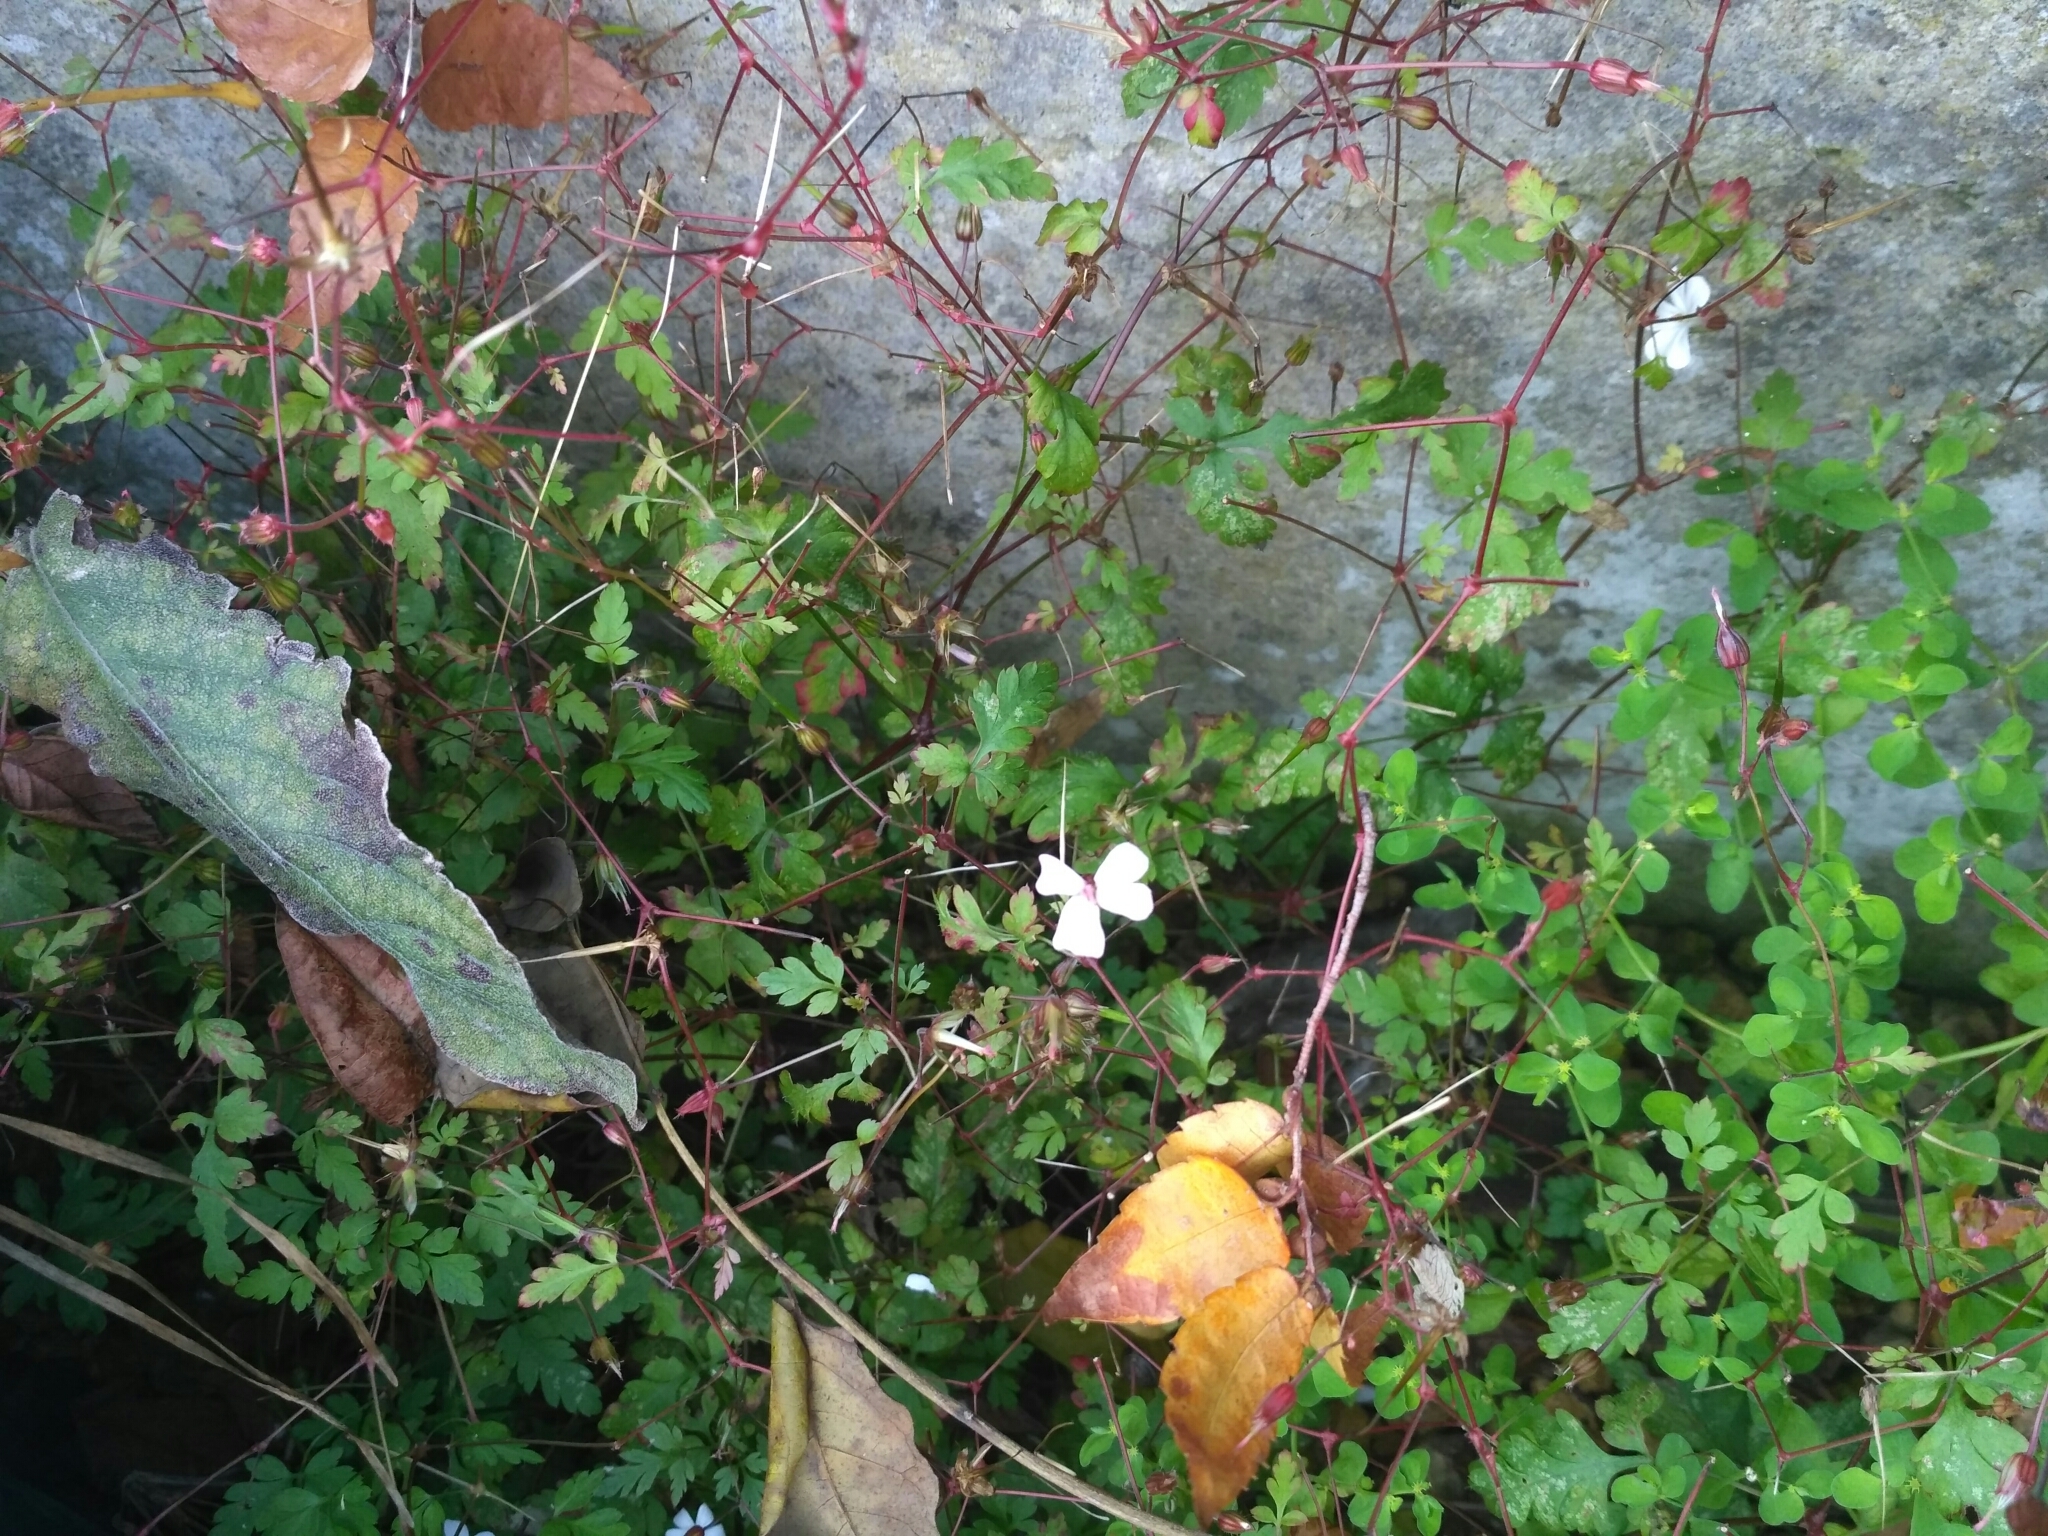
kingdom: Plantae
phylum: Tracheophyta
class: Magnoliopsida
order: Geraniales
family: Geraniaceae
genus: Geranium
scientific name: Geranium robertianum
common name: Herb-robert
